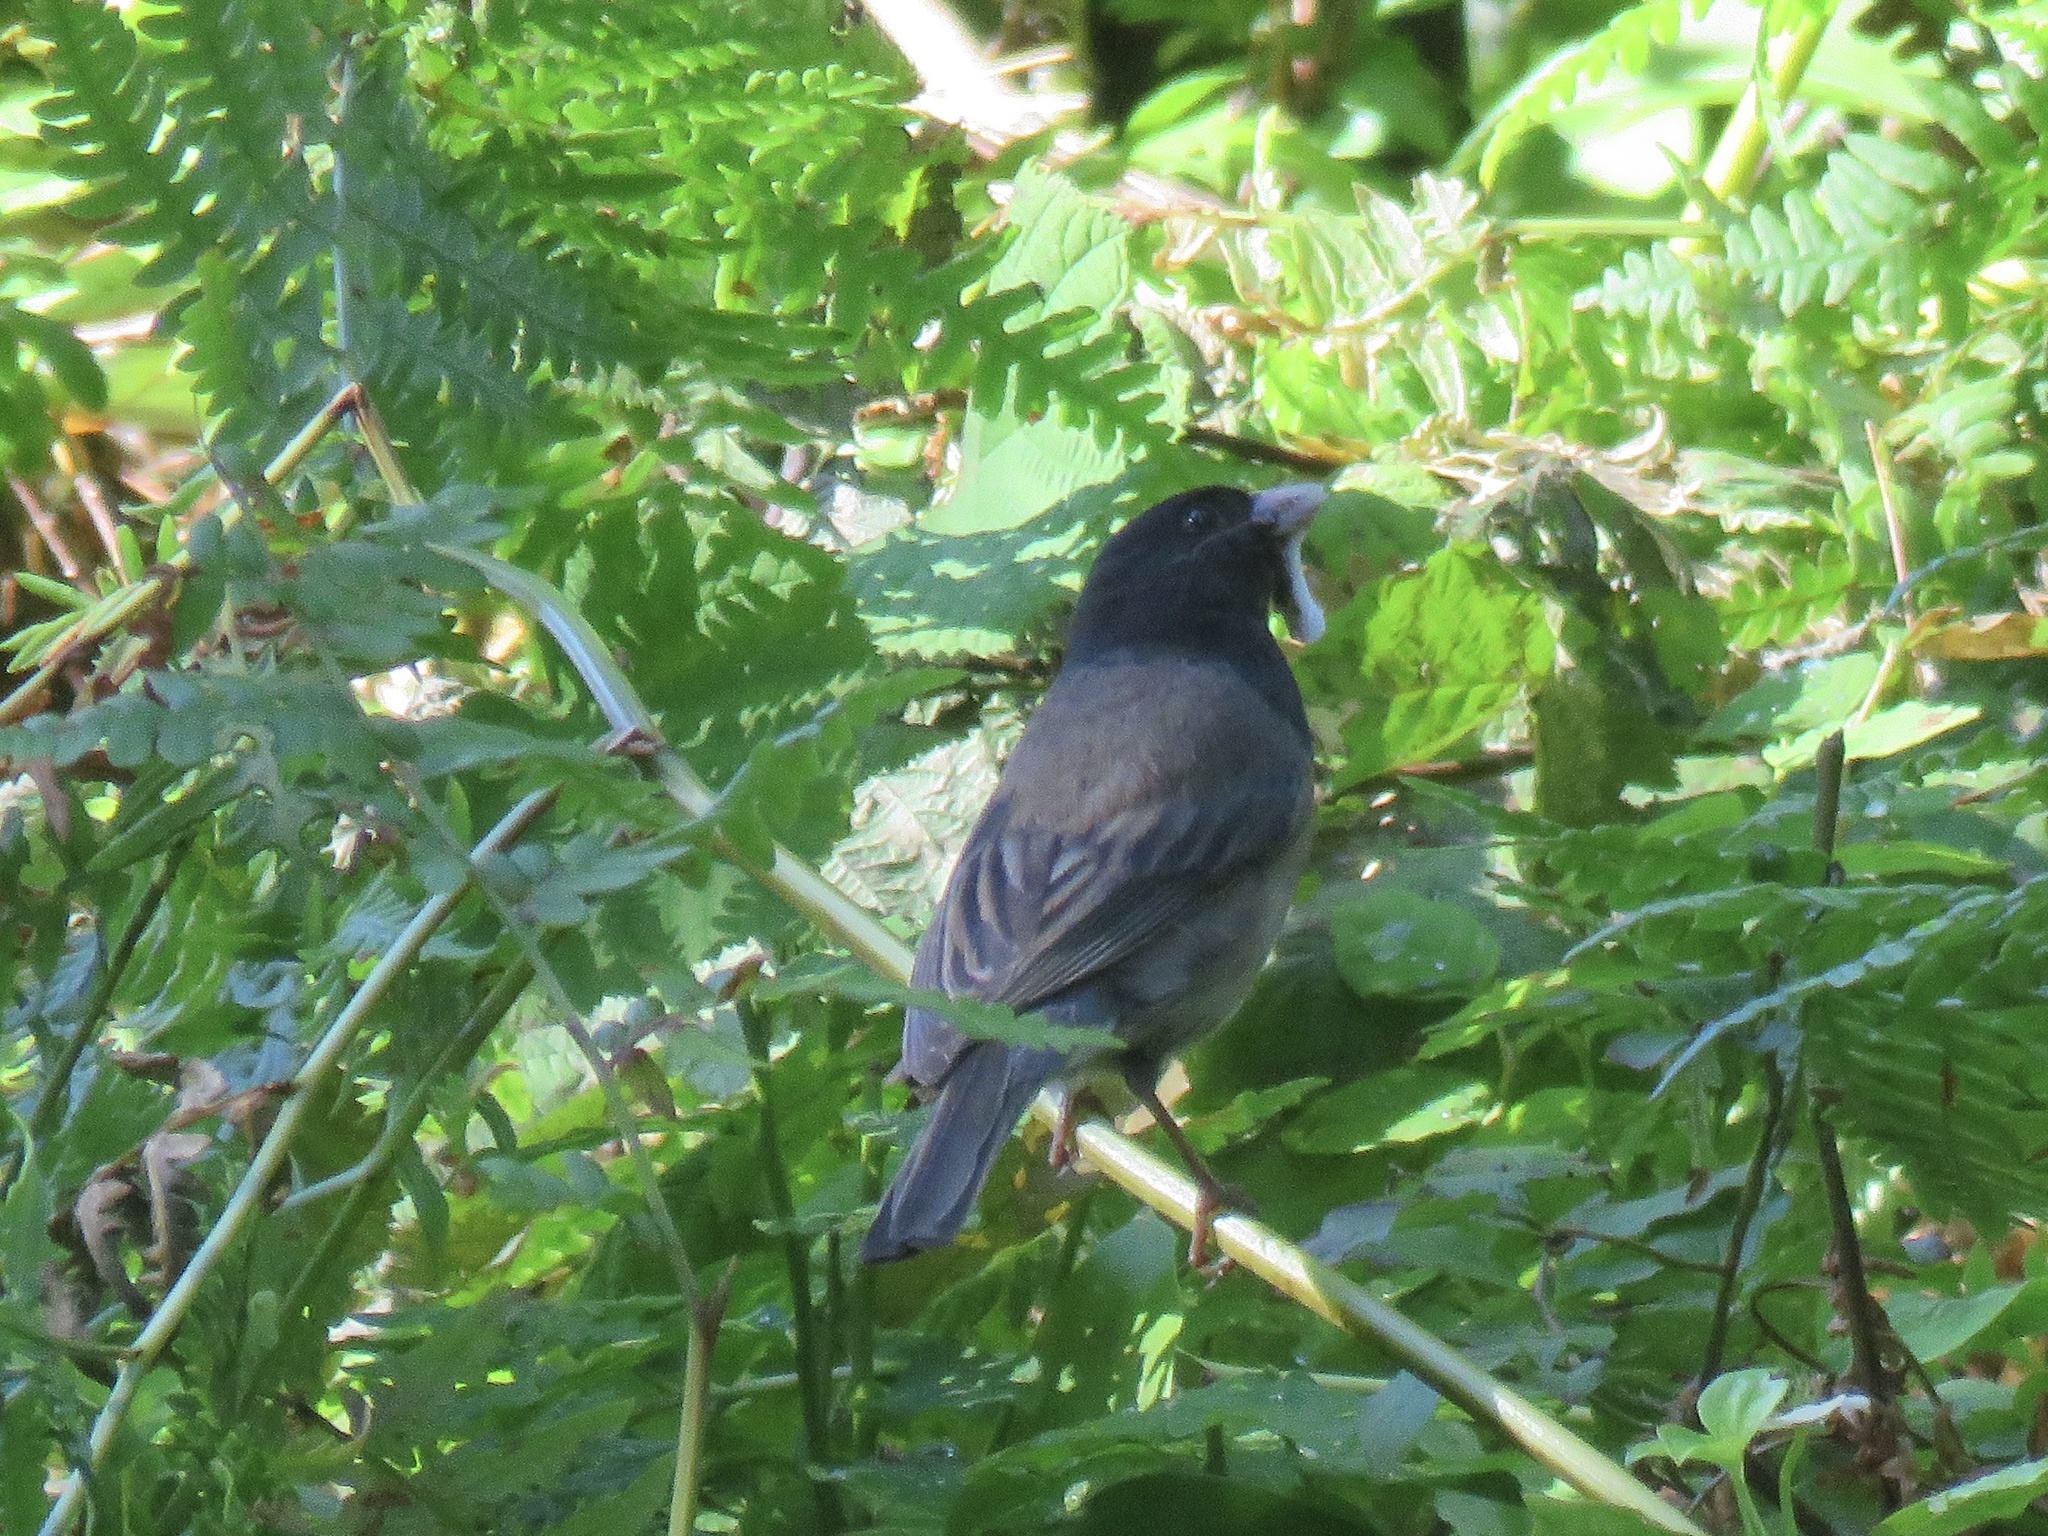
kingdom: Animalia
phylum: Chordata
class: Aves
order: Passeriformes
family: Passerellidae
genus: Junco
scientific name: Junco hyemalis
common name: Dark-eyed junco
